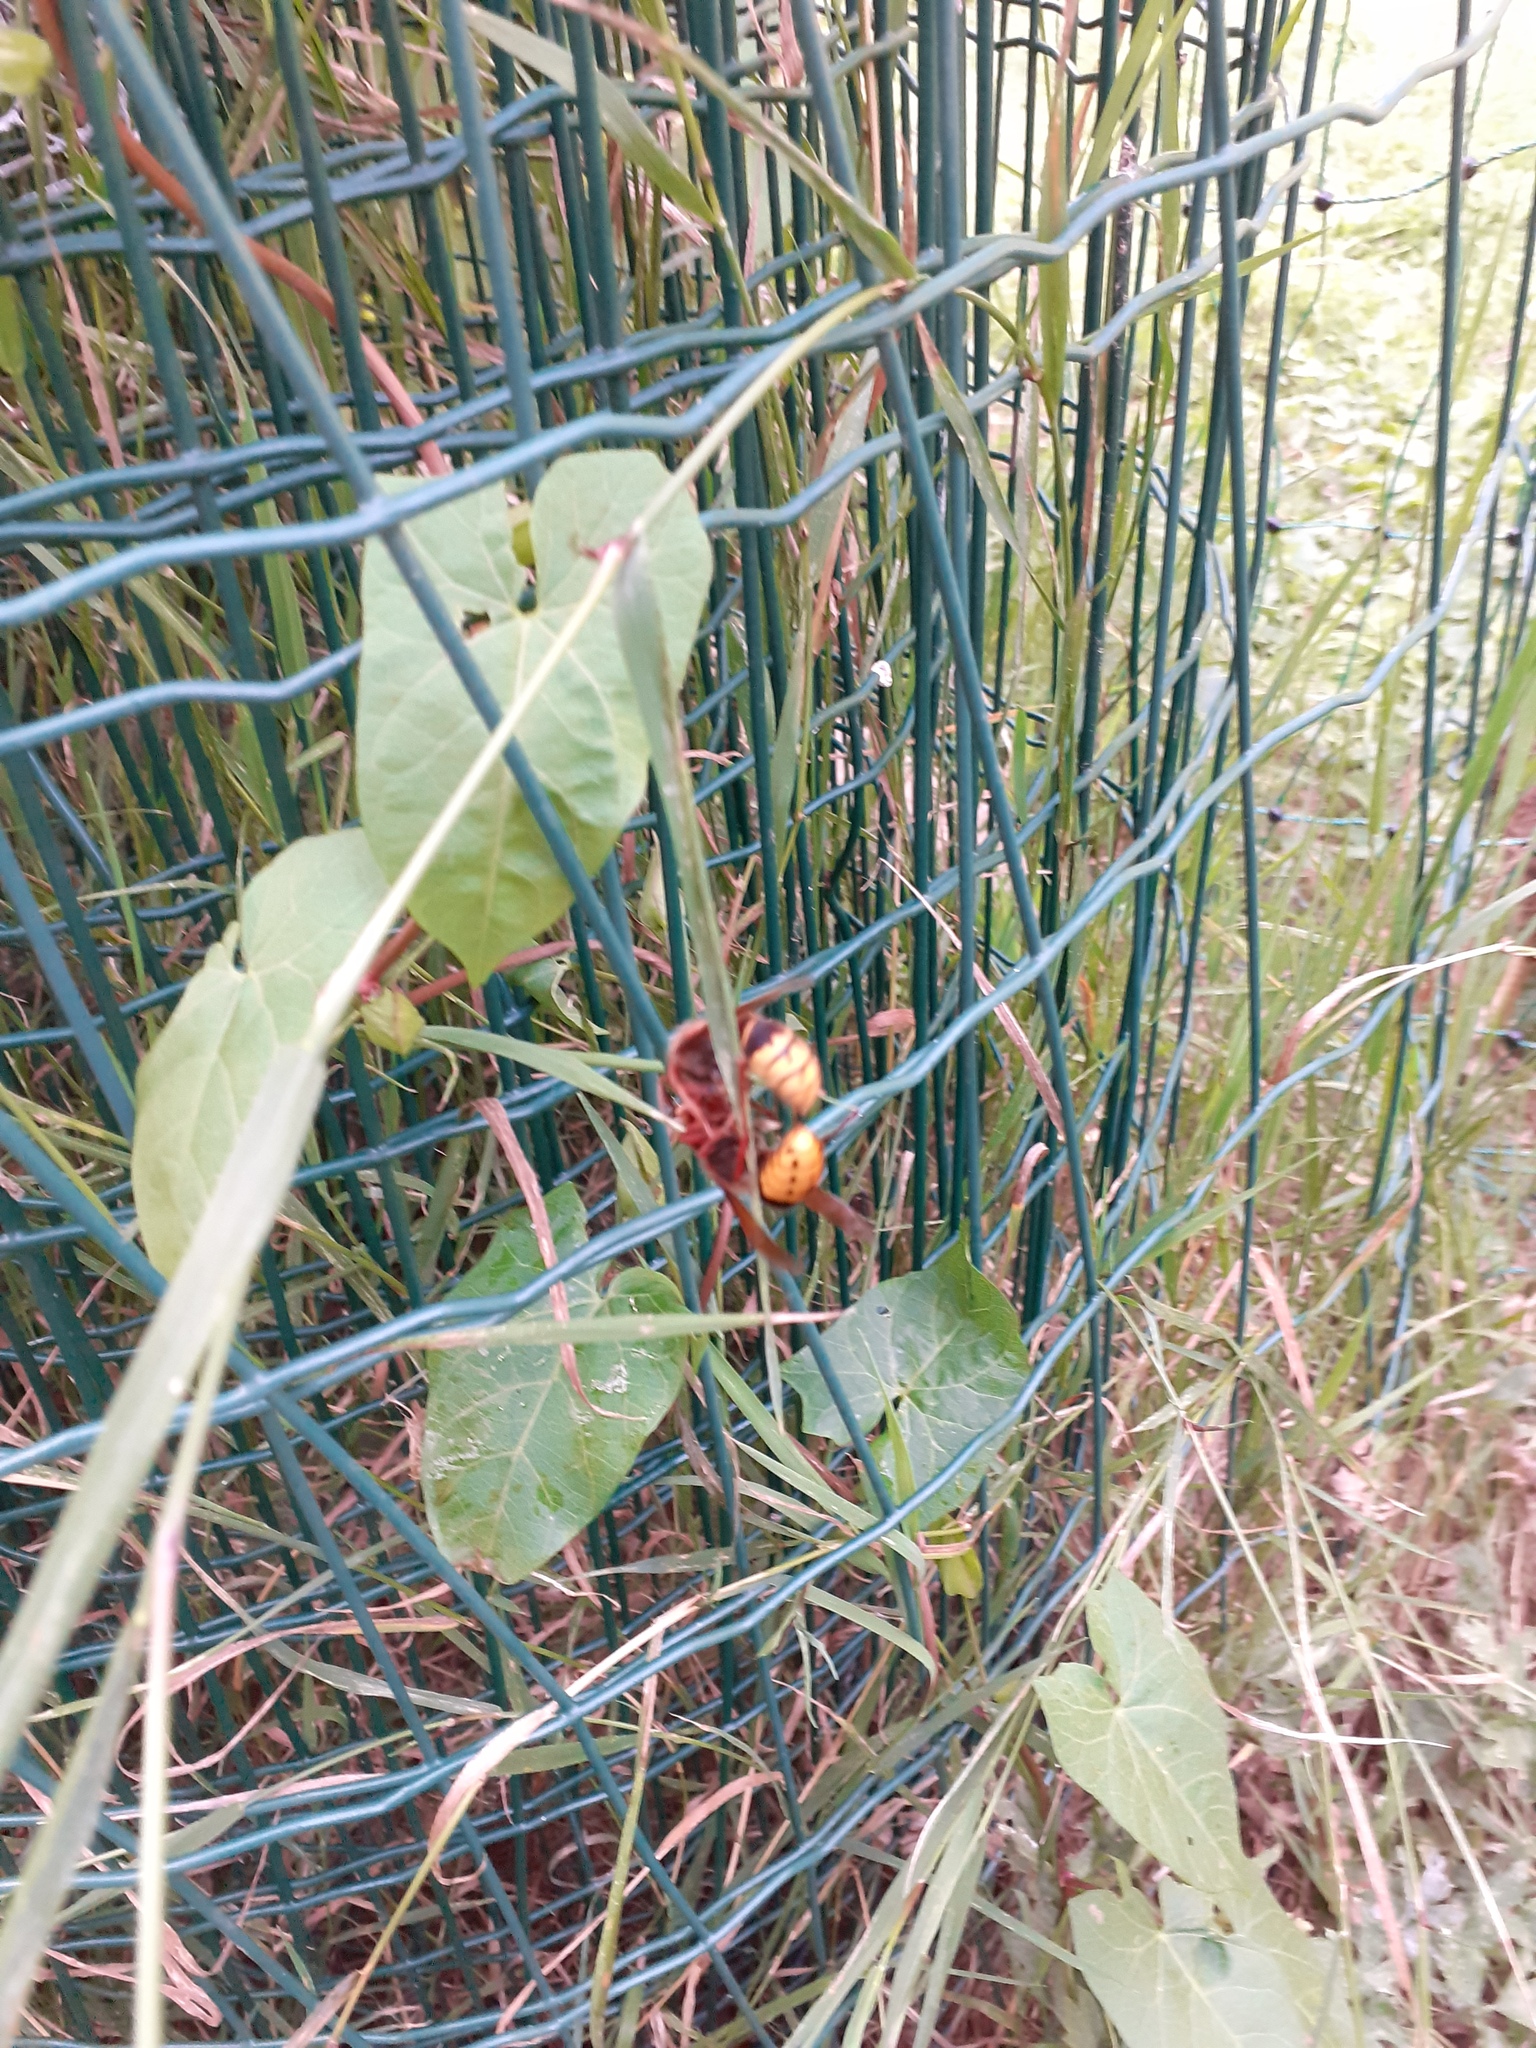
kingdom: Animalia
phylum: Arthropoda
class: Insecta
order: Hymenoptera
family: Vespidae
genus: Vespa
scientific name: Vespa crabro
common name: Hornet
